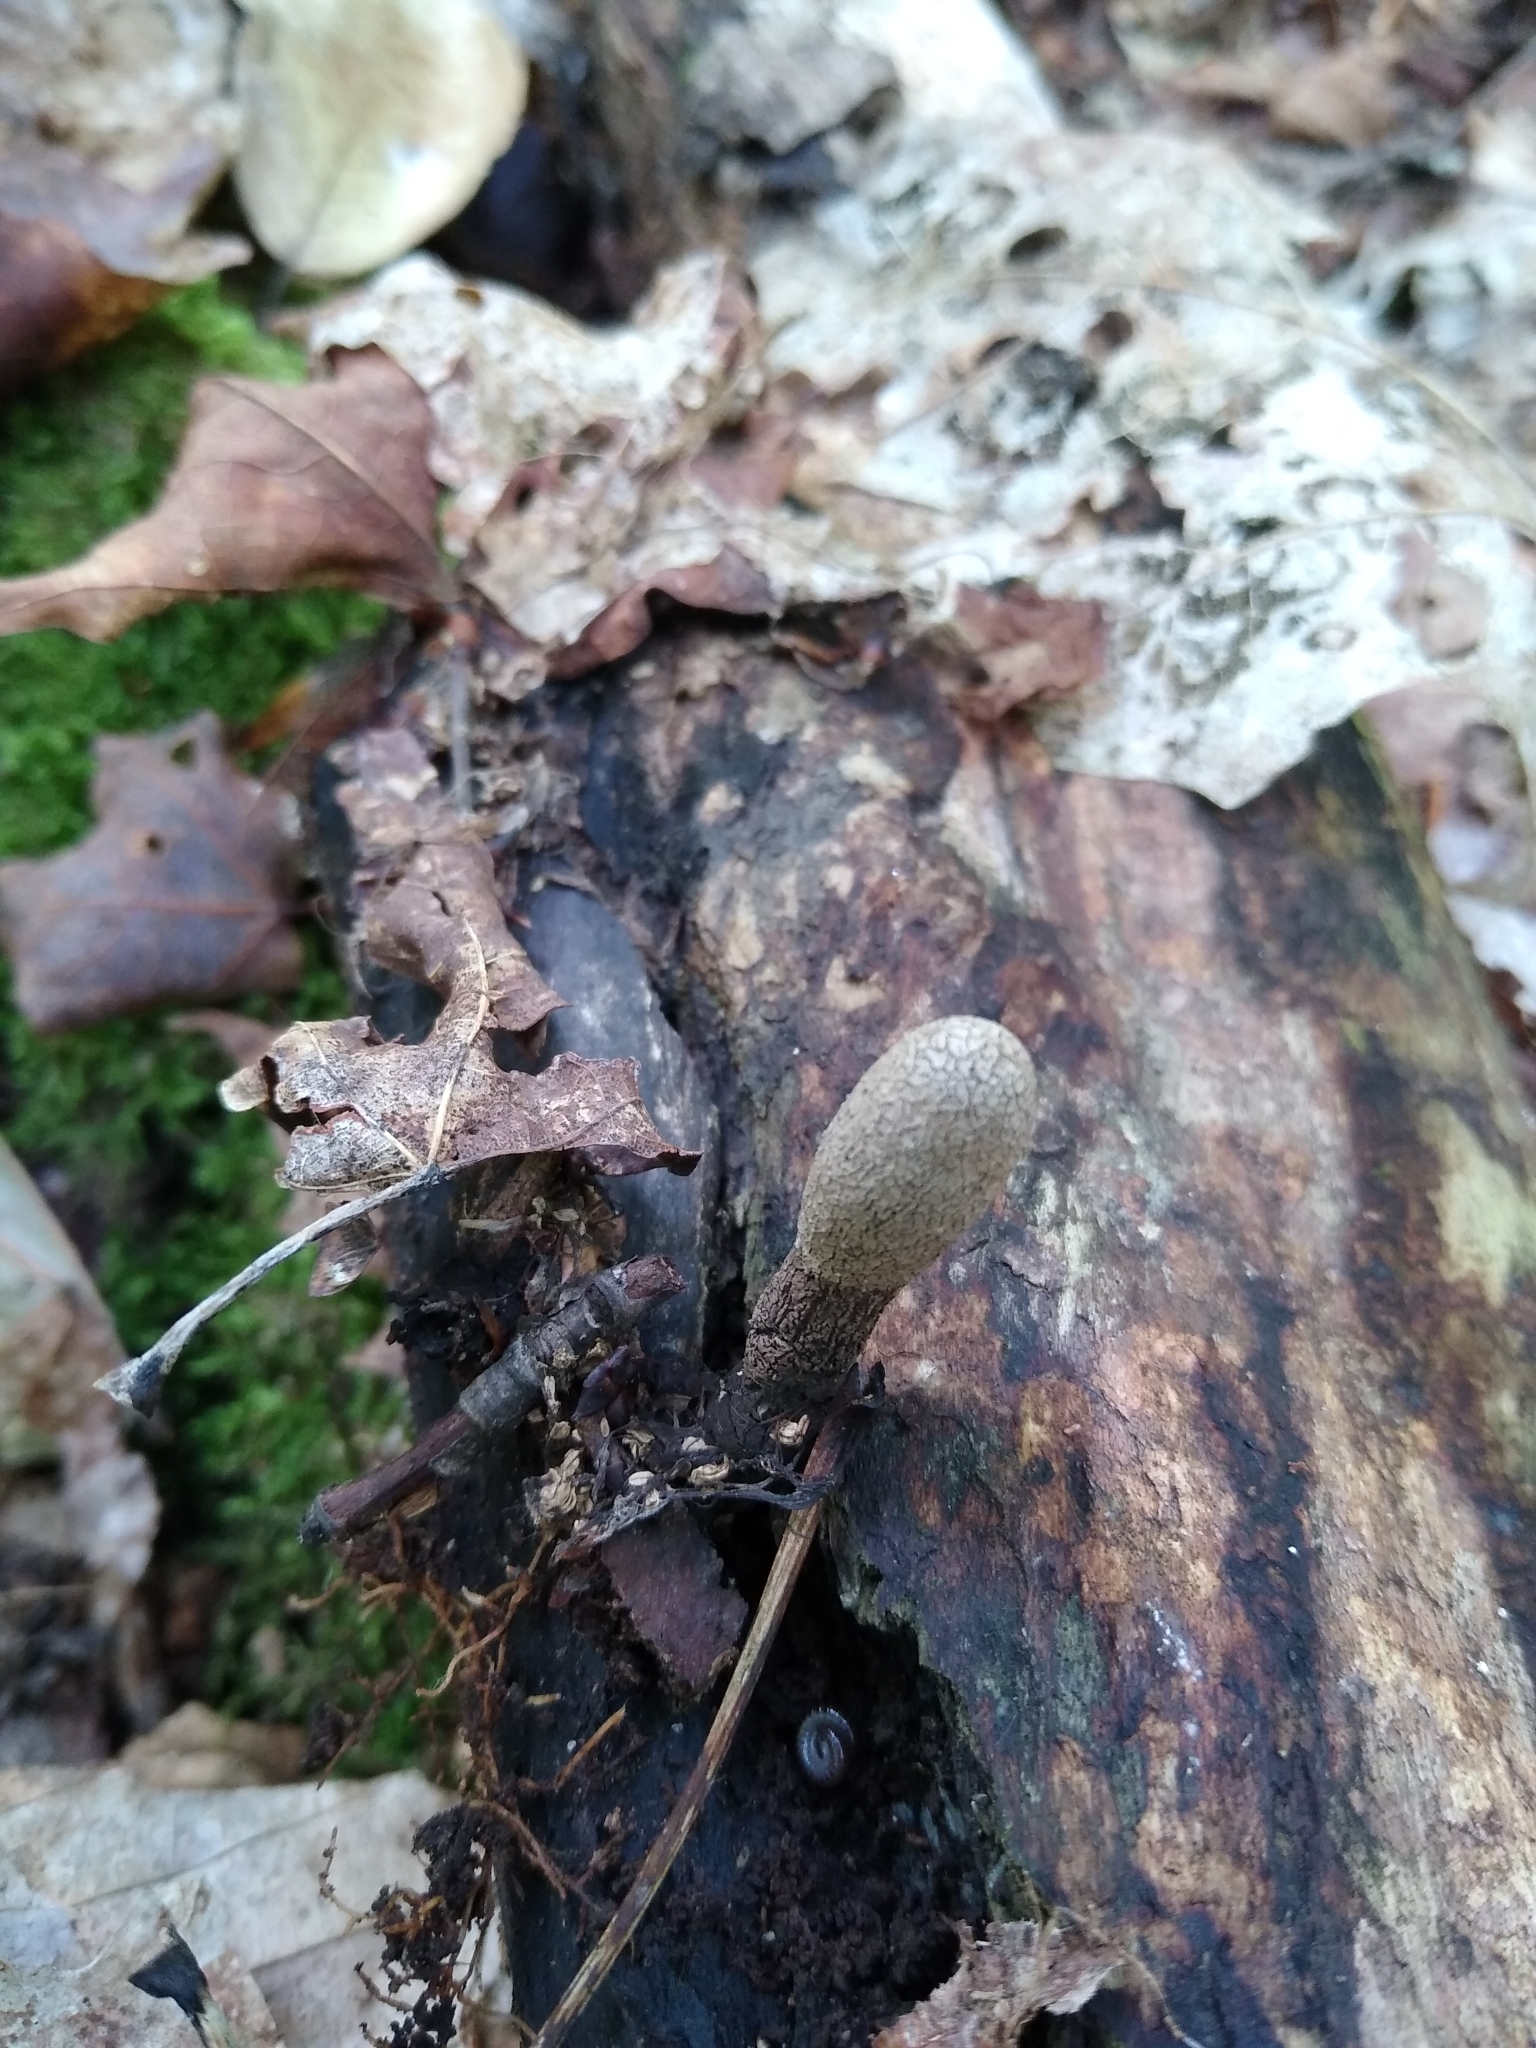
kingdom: Fungi
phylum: Ascomycota
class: Sordariomycetes
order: Xylariales
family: Xylariaceae
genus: Xylaria
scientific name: Xylaria longipes
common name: Dead moll's fingers
